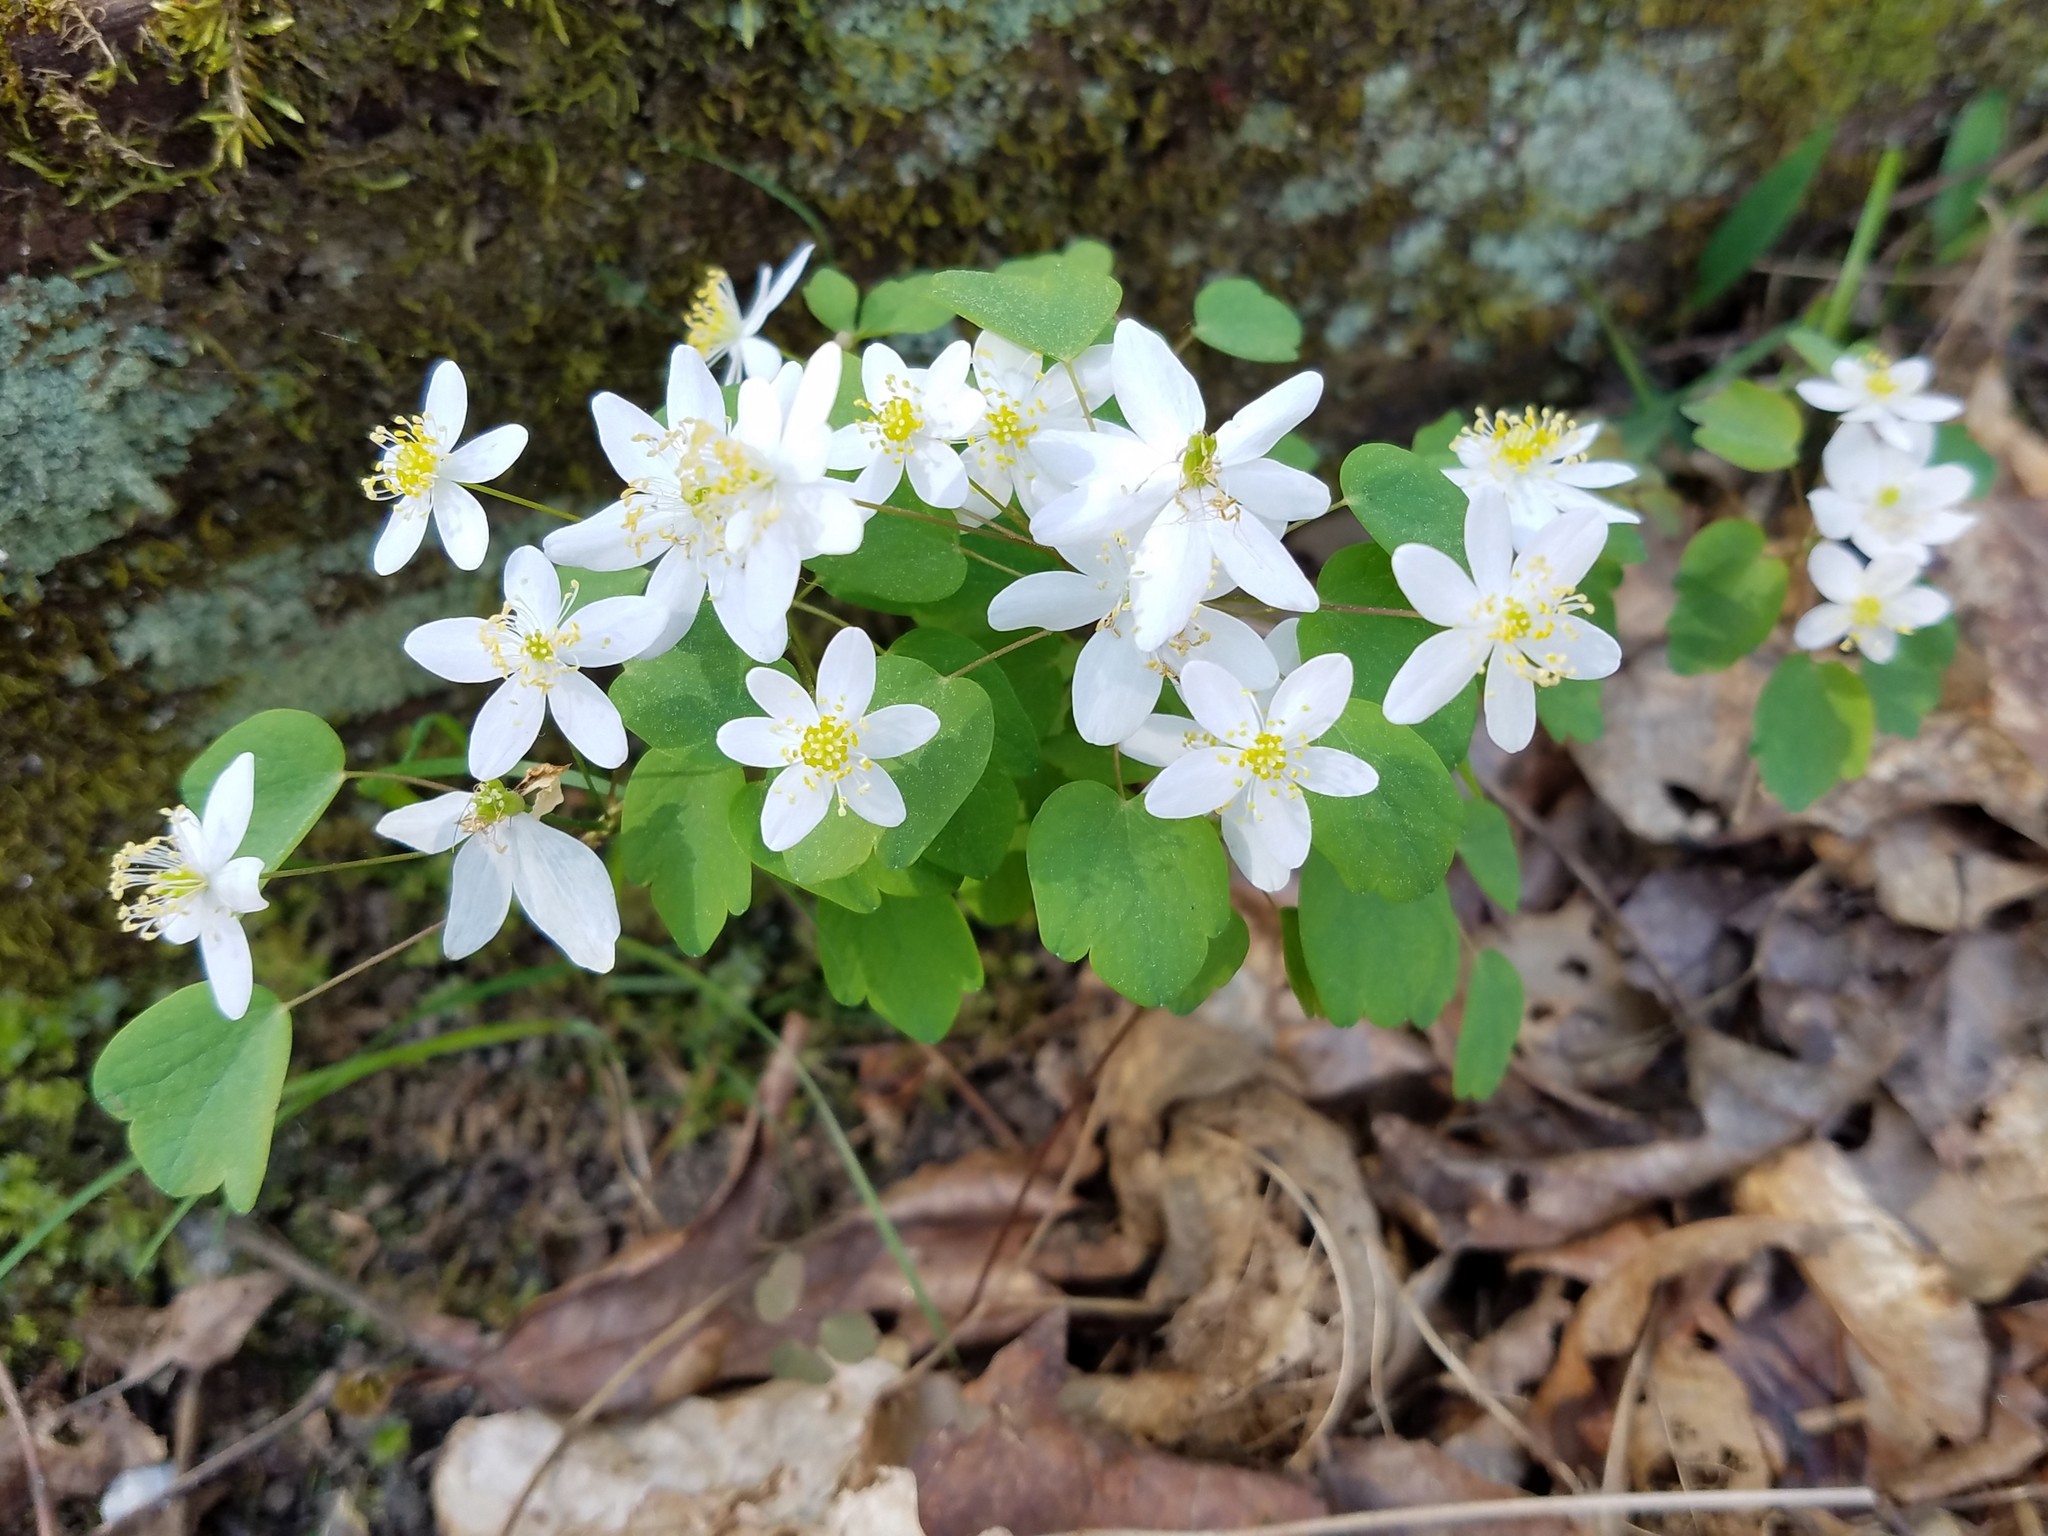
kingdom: Plantae
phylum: Tracheophyta
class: Magnoliopsida
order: Ranunculales
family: Ranunculaceae
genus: Thalictrum
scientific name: Thalictrum thalictroides
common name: Rue-anemone
